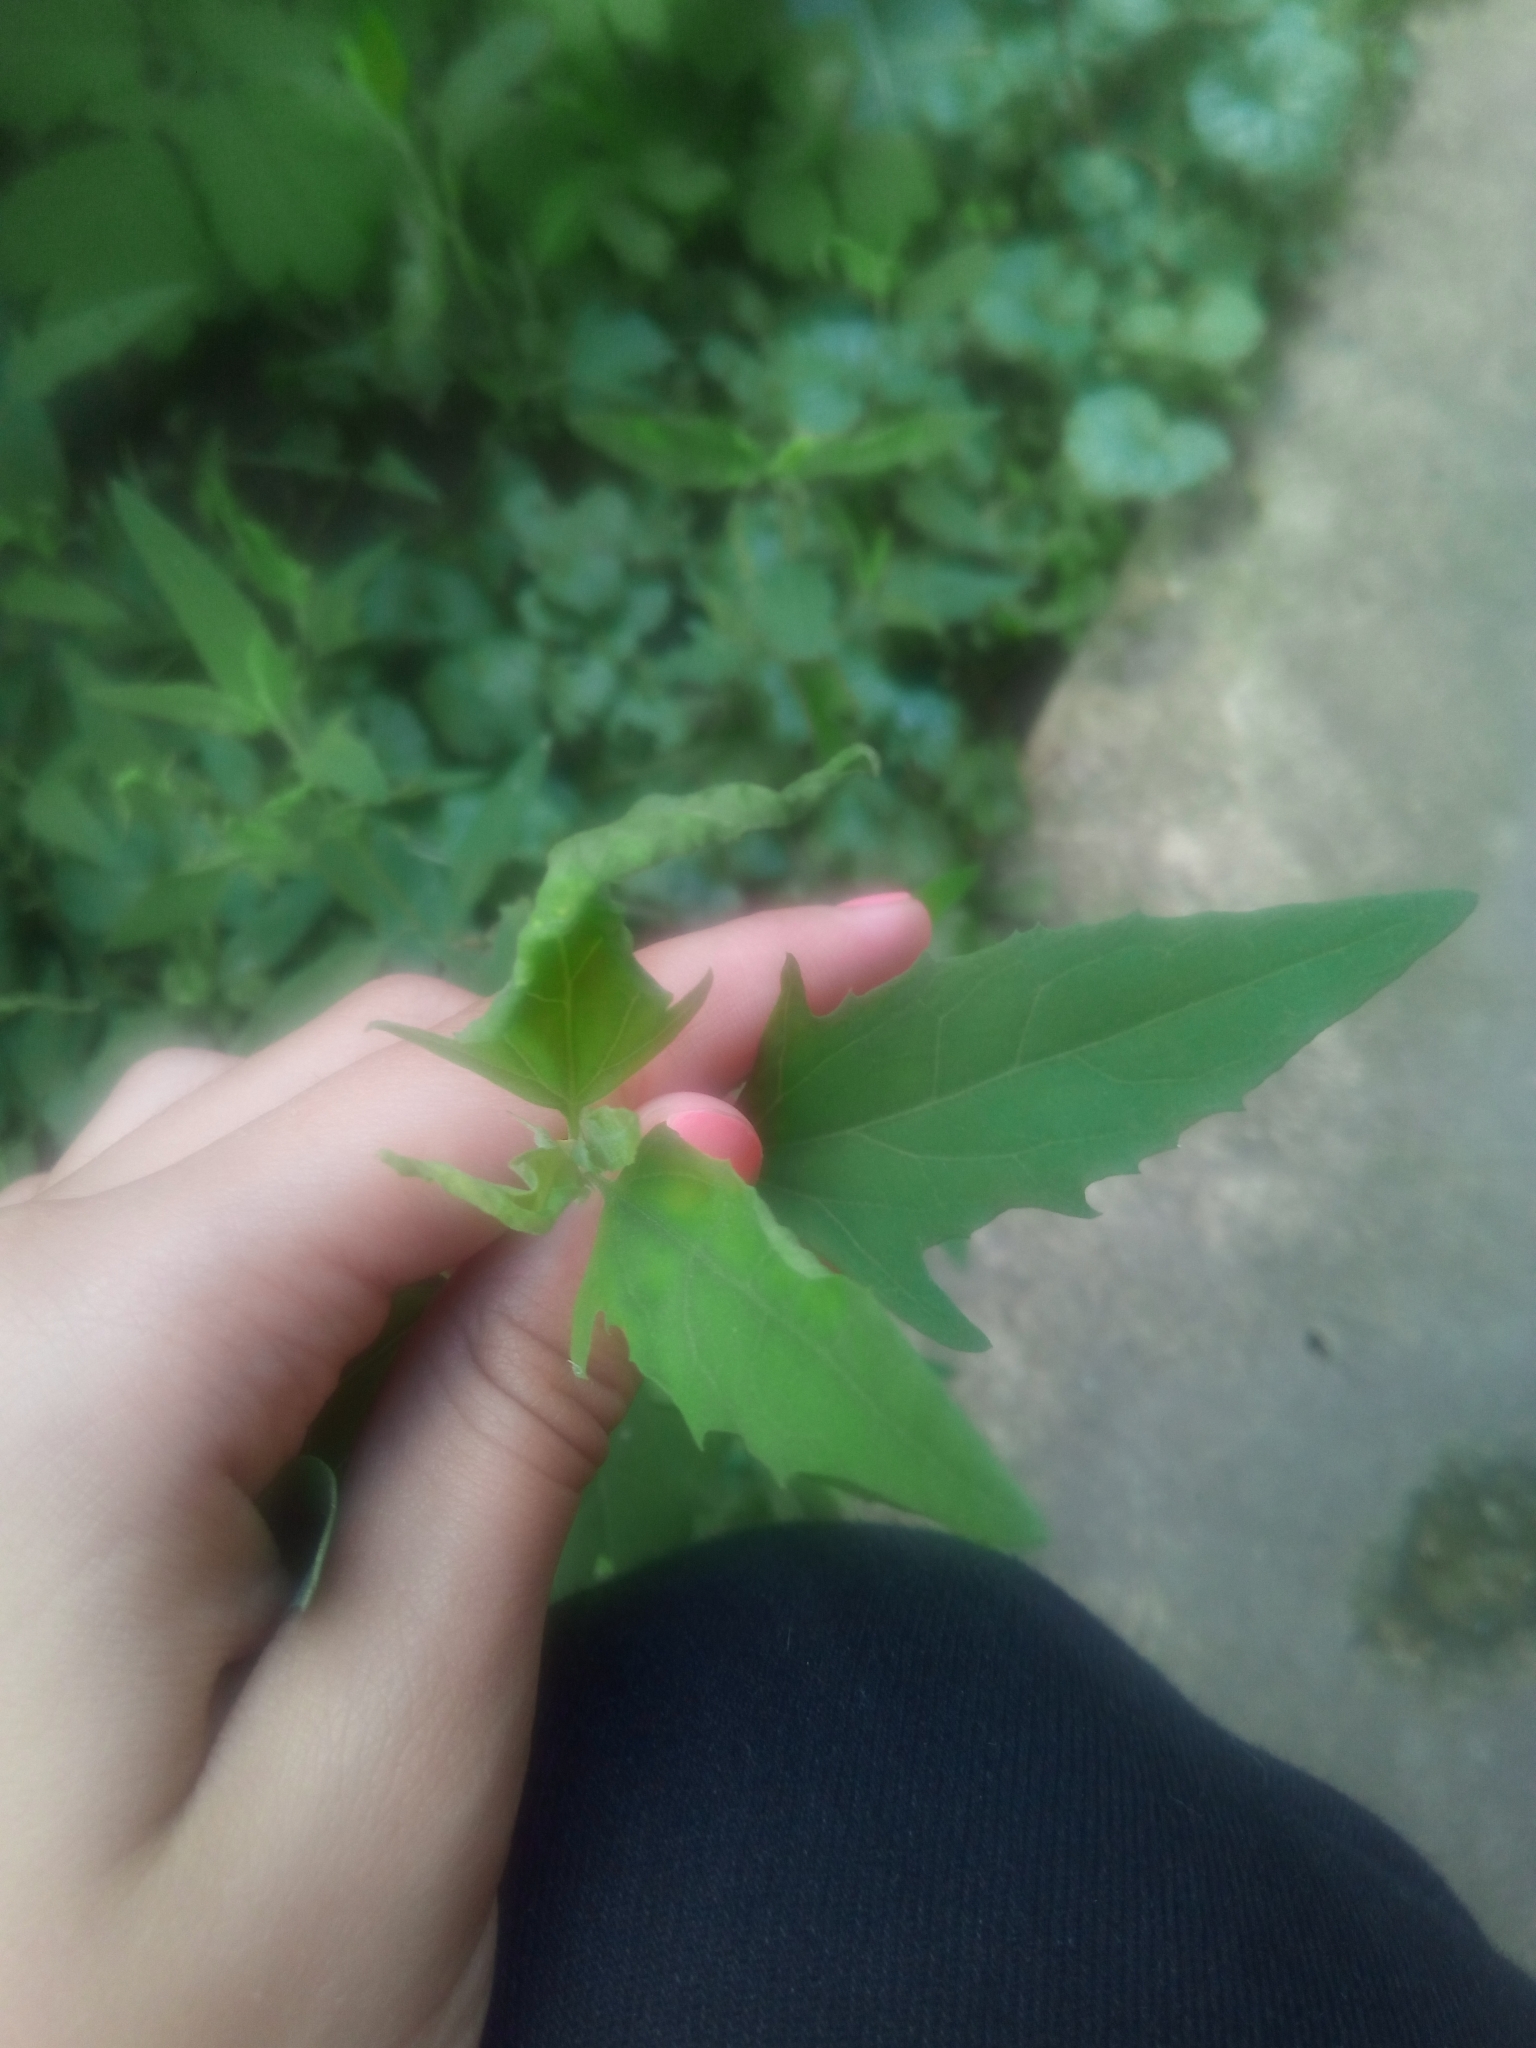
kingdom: Plantae
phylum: Tracheophyta
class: Magnoliopsida
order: Caryophyllales
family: Amaranthaceae
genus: Atriplex
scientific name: Atriplex patula
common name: Common orache
